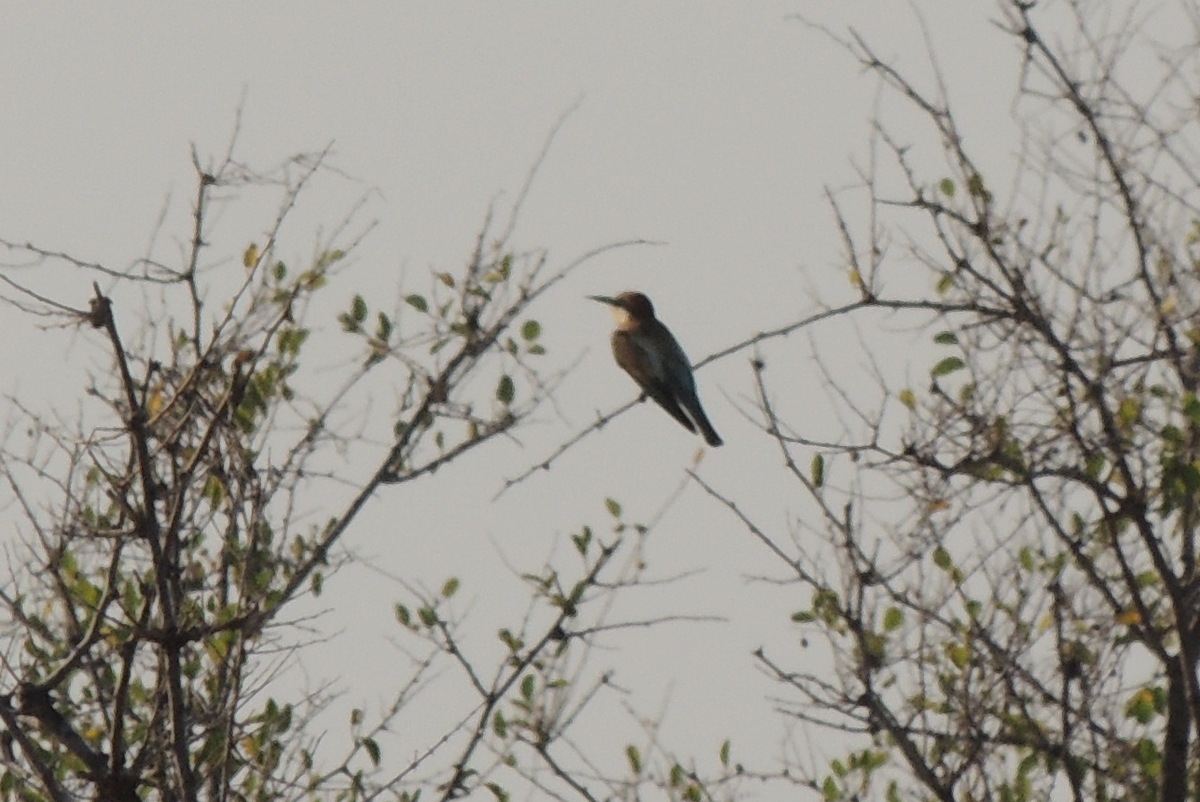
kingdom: Animalia
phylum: Chordata
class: Aves
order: Coraciiformes
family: Meropidae
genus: Merops
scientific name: Merops apiaster
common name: European bee-eater
